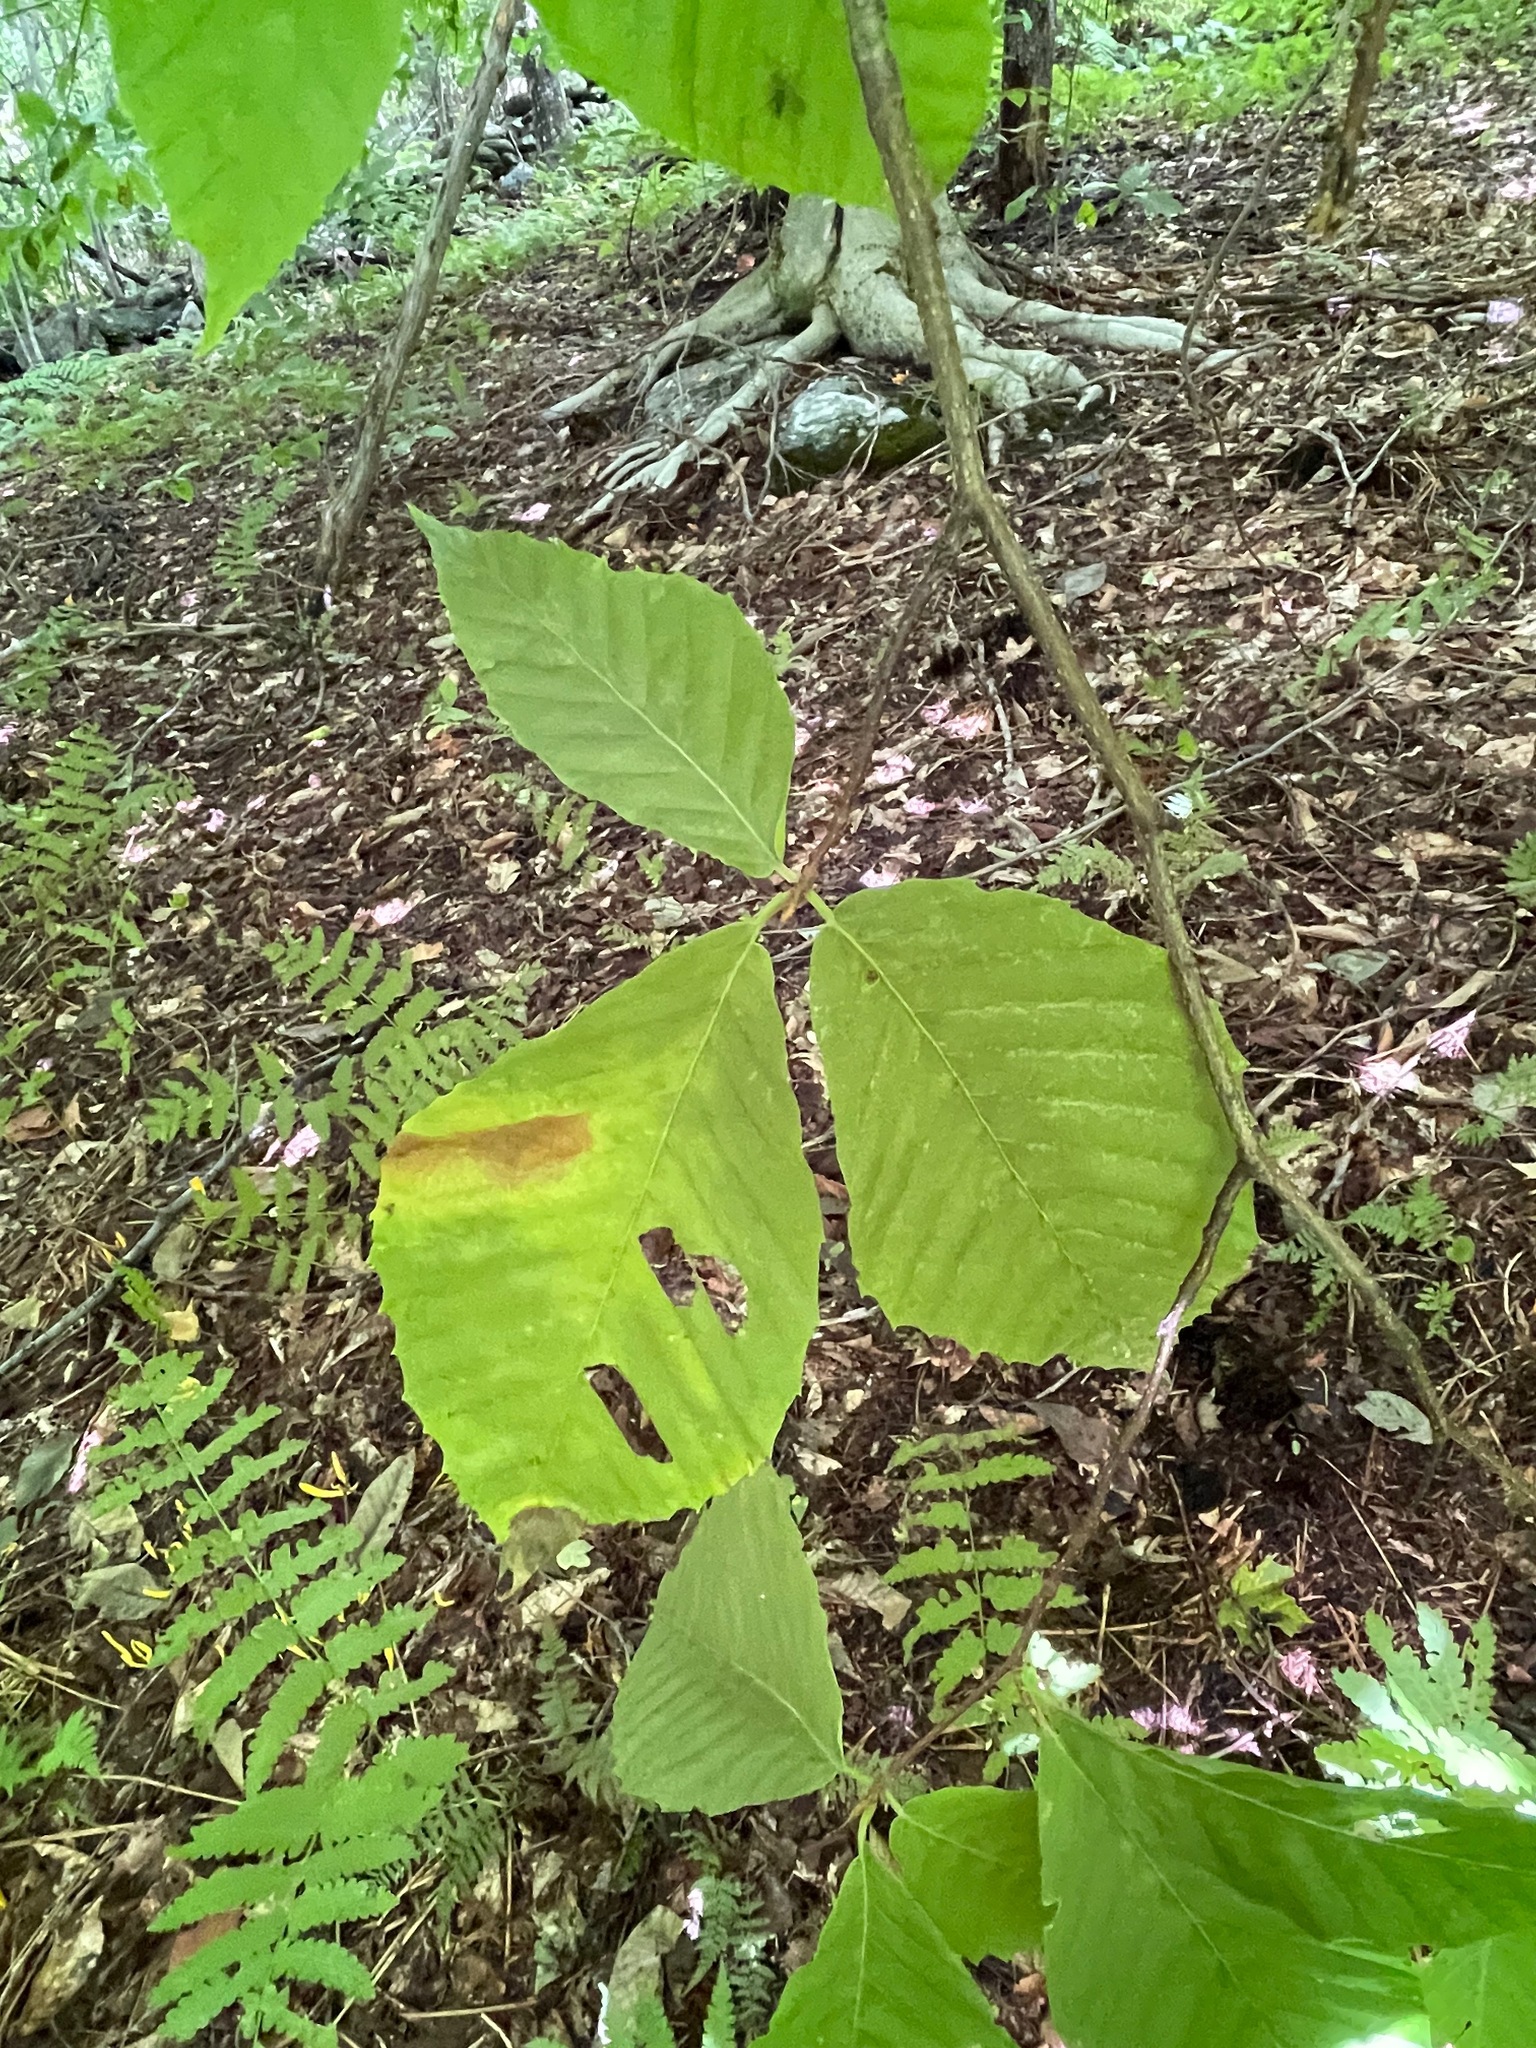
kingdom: Plantae
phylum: Tracheophyta
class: Magnoliopsida
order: Fagales
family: Fagaceae
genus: Fagus
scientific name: Fagus grandifolia
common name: American beech
